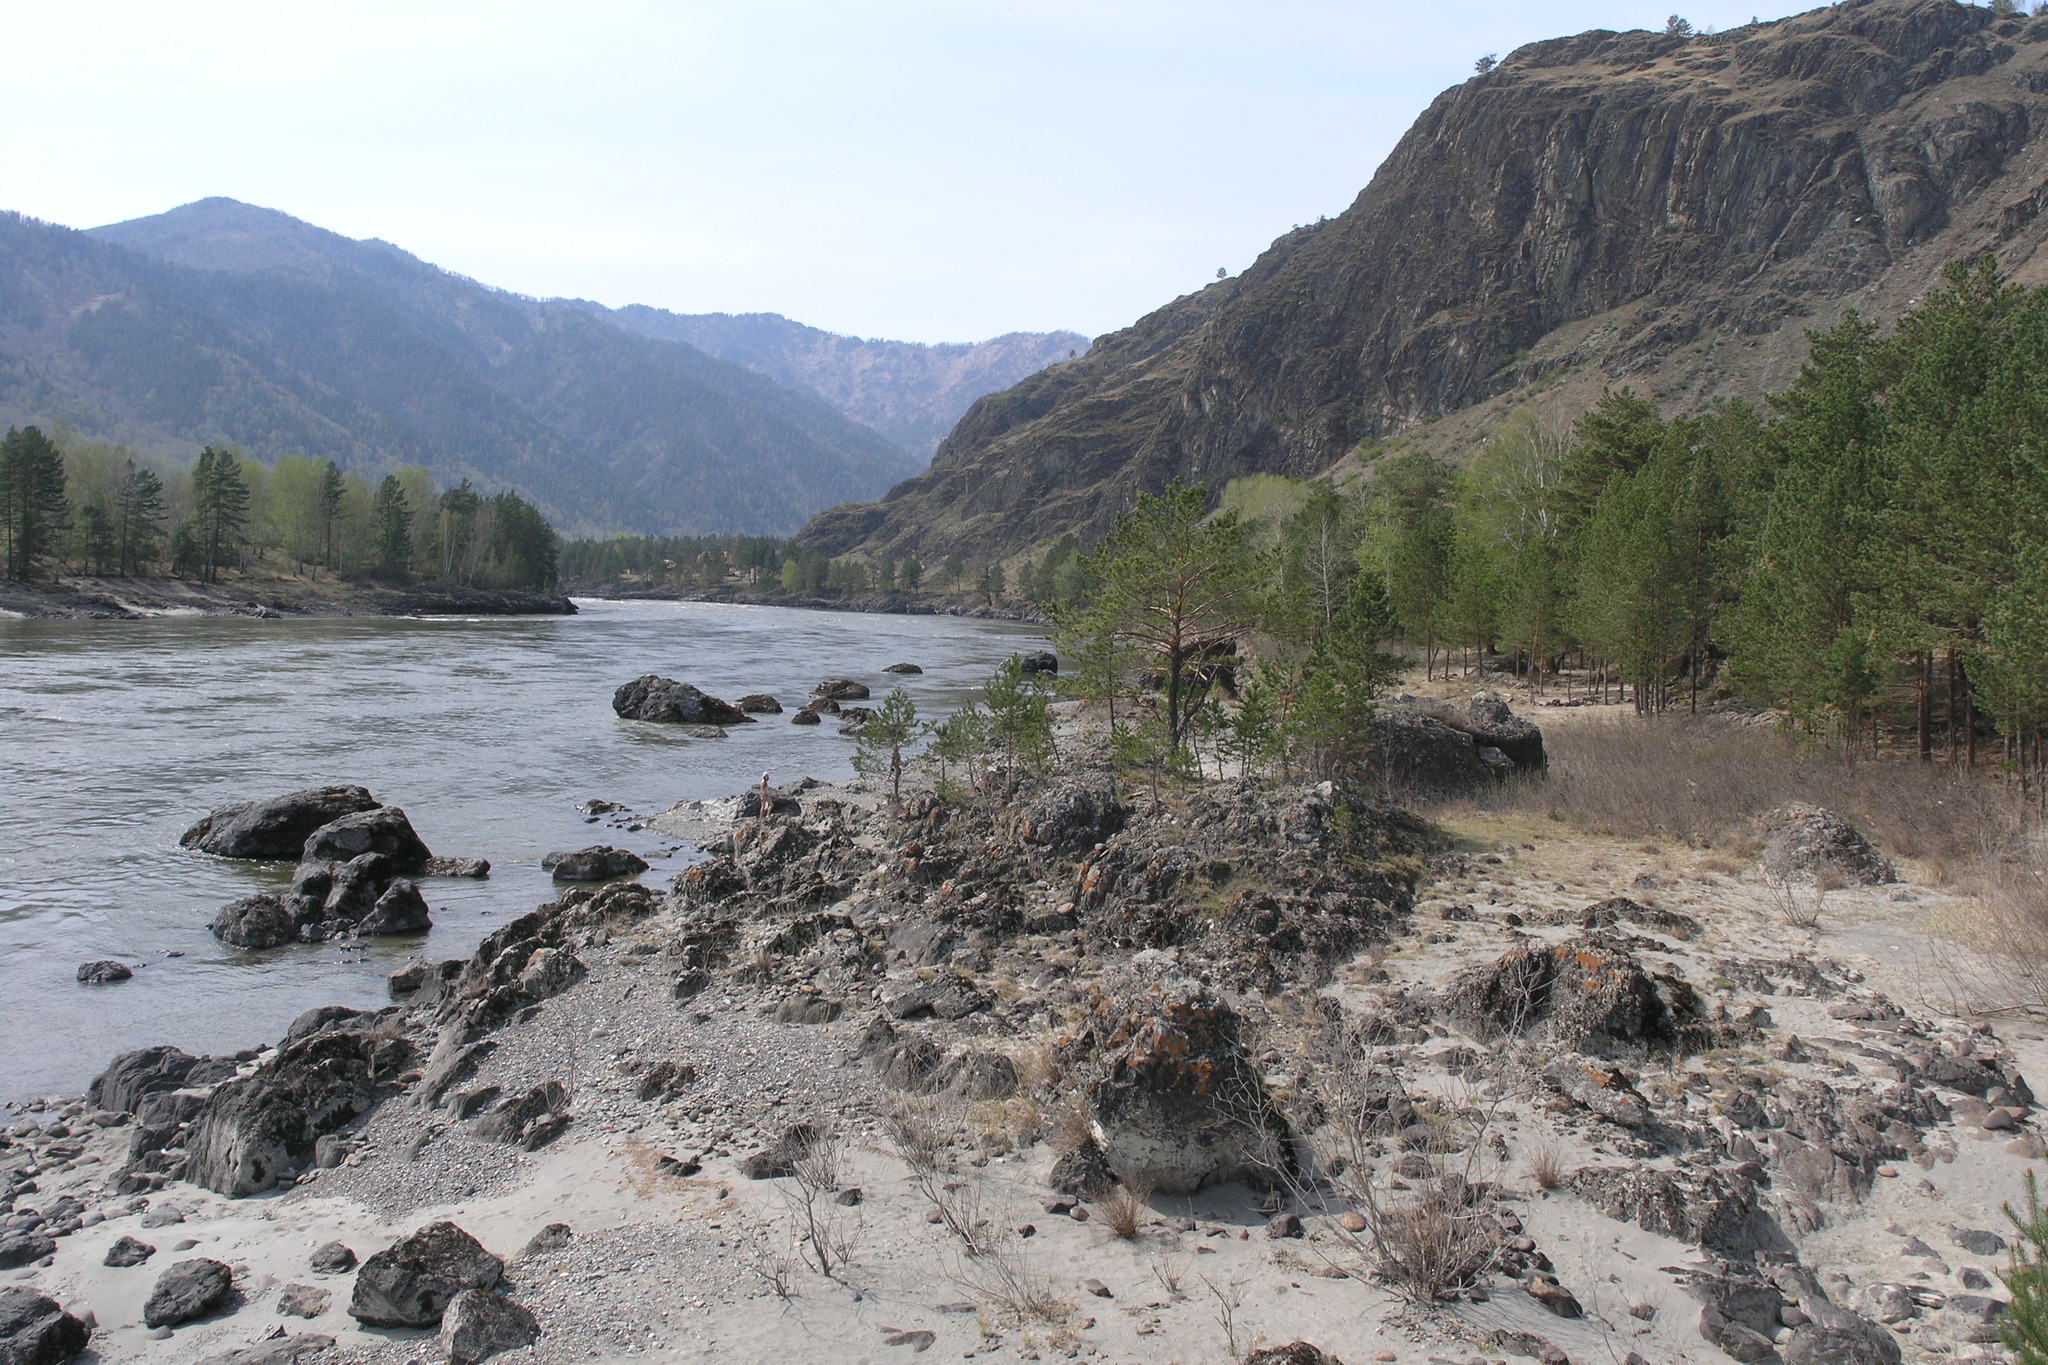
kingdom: Plantae
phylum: Tracheophyta
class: Pinopsida
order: Pinales
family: Pinaceae
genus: Pinus
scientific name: Pinus sylvestris
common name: Scots pine
